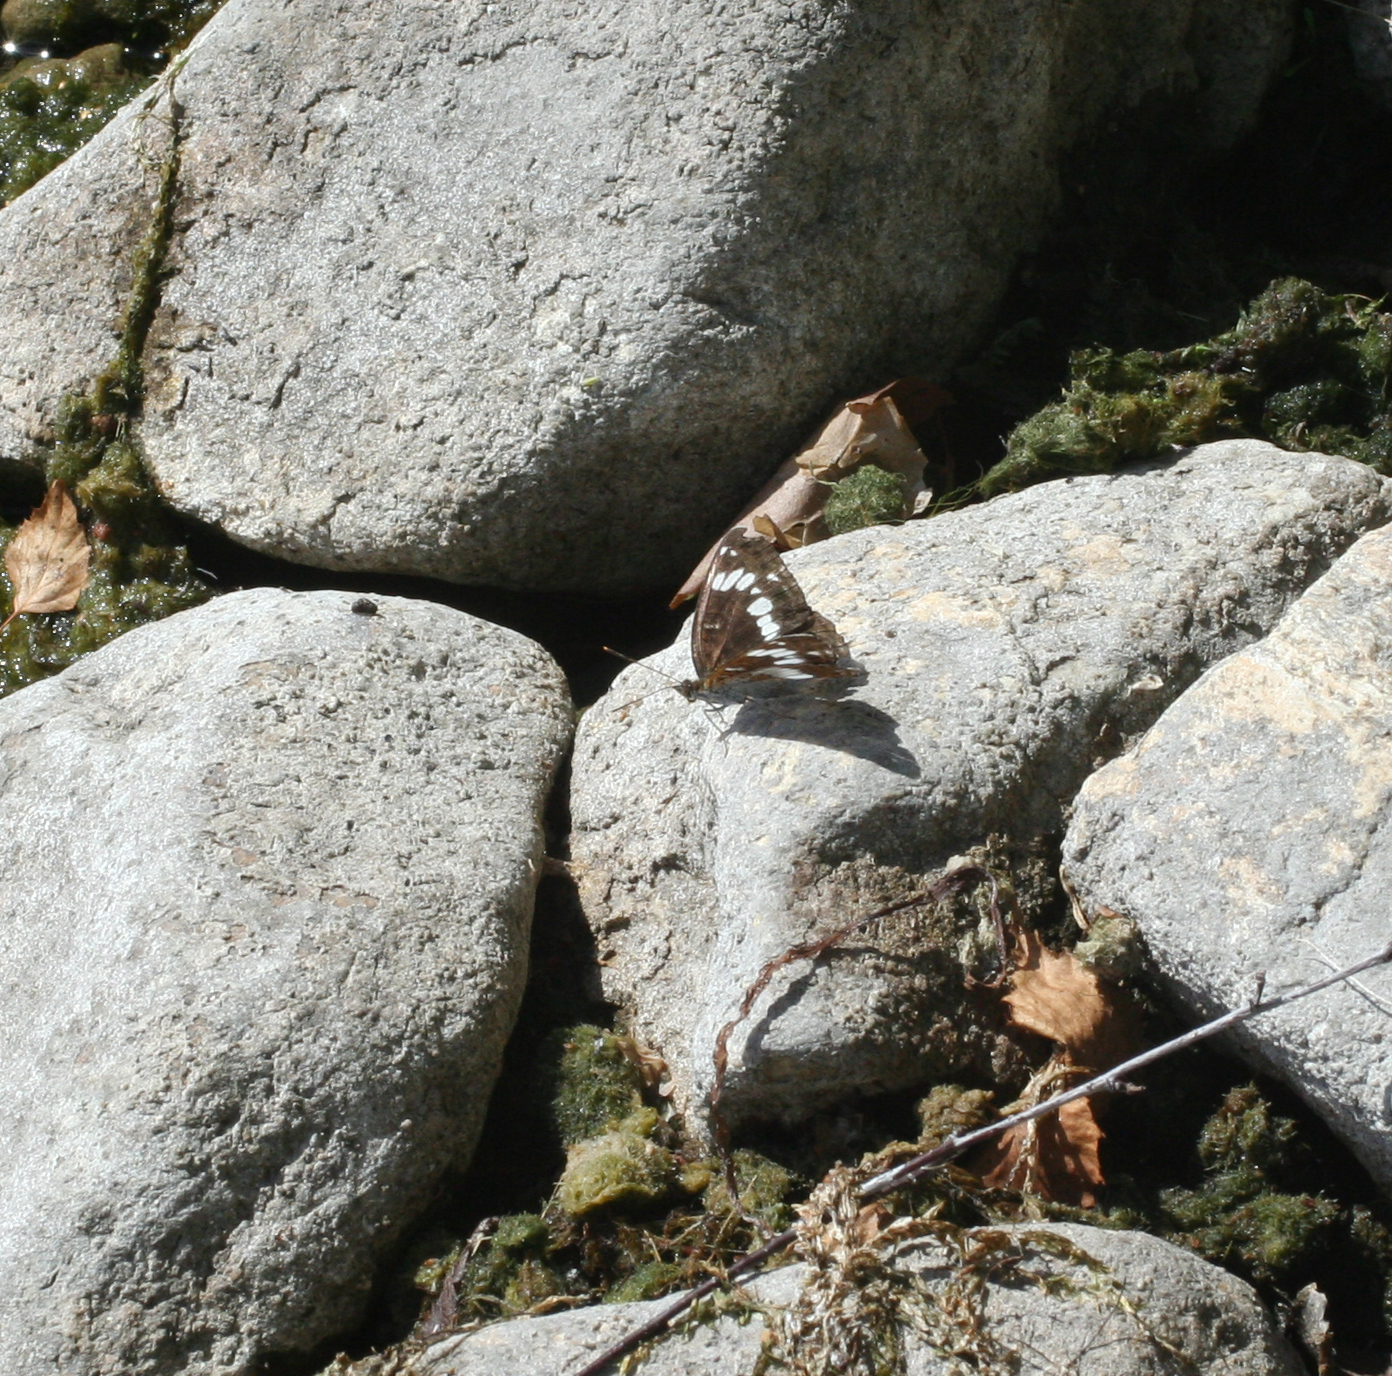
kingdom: Animalia
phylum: Arthropoda
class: Insecta
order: Lepidoptera
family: Nymphalidae
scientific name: Nymphalidae
